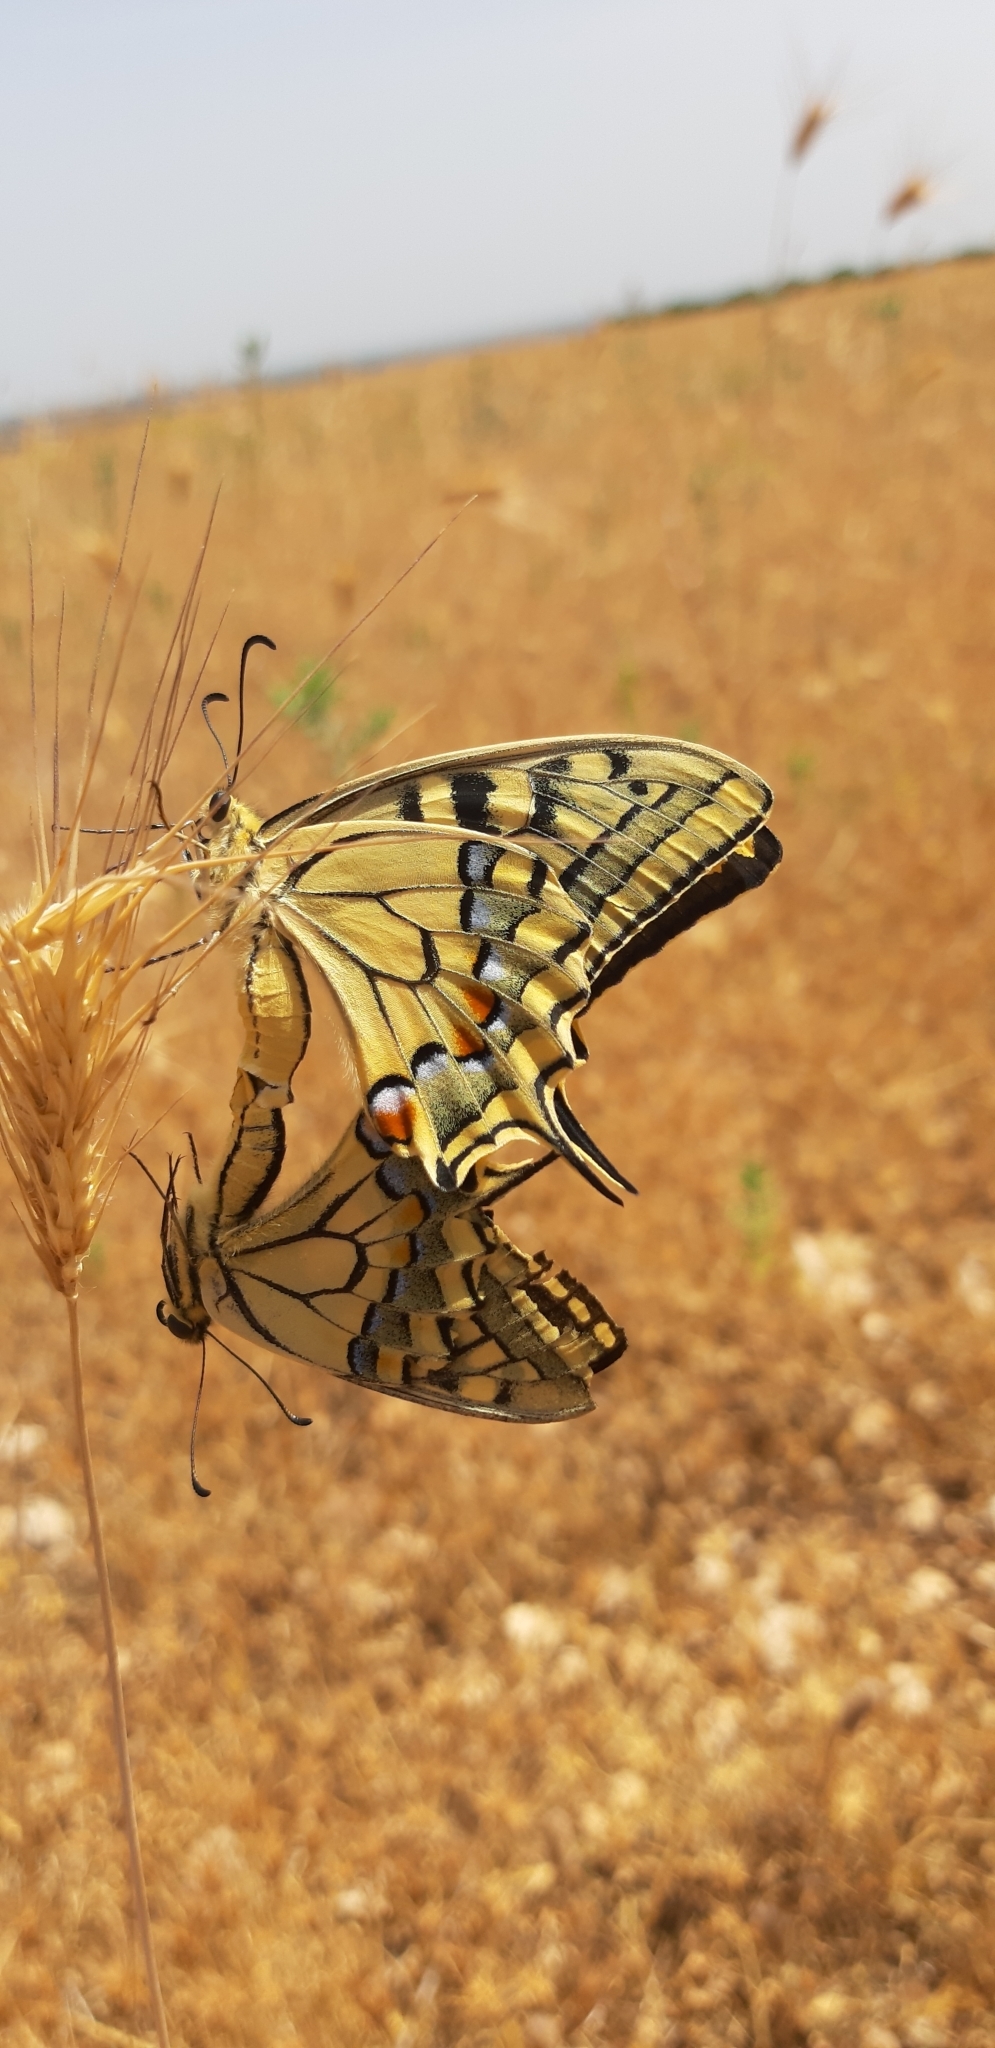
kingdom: Animalia
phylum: Arthropoda
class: Insecta
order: Lepidoptera
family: Papilionidae
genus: Papilio
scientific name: Papilio machaon
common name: Swallowtail
